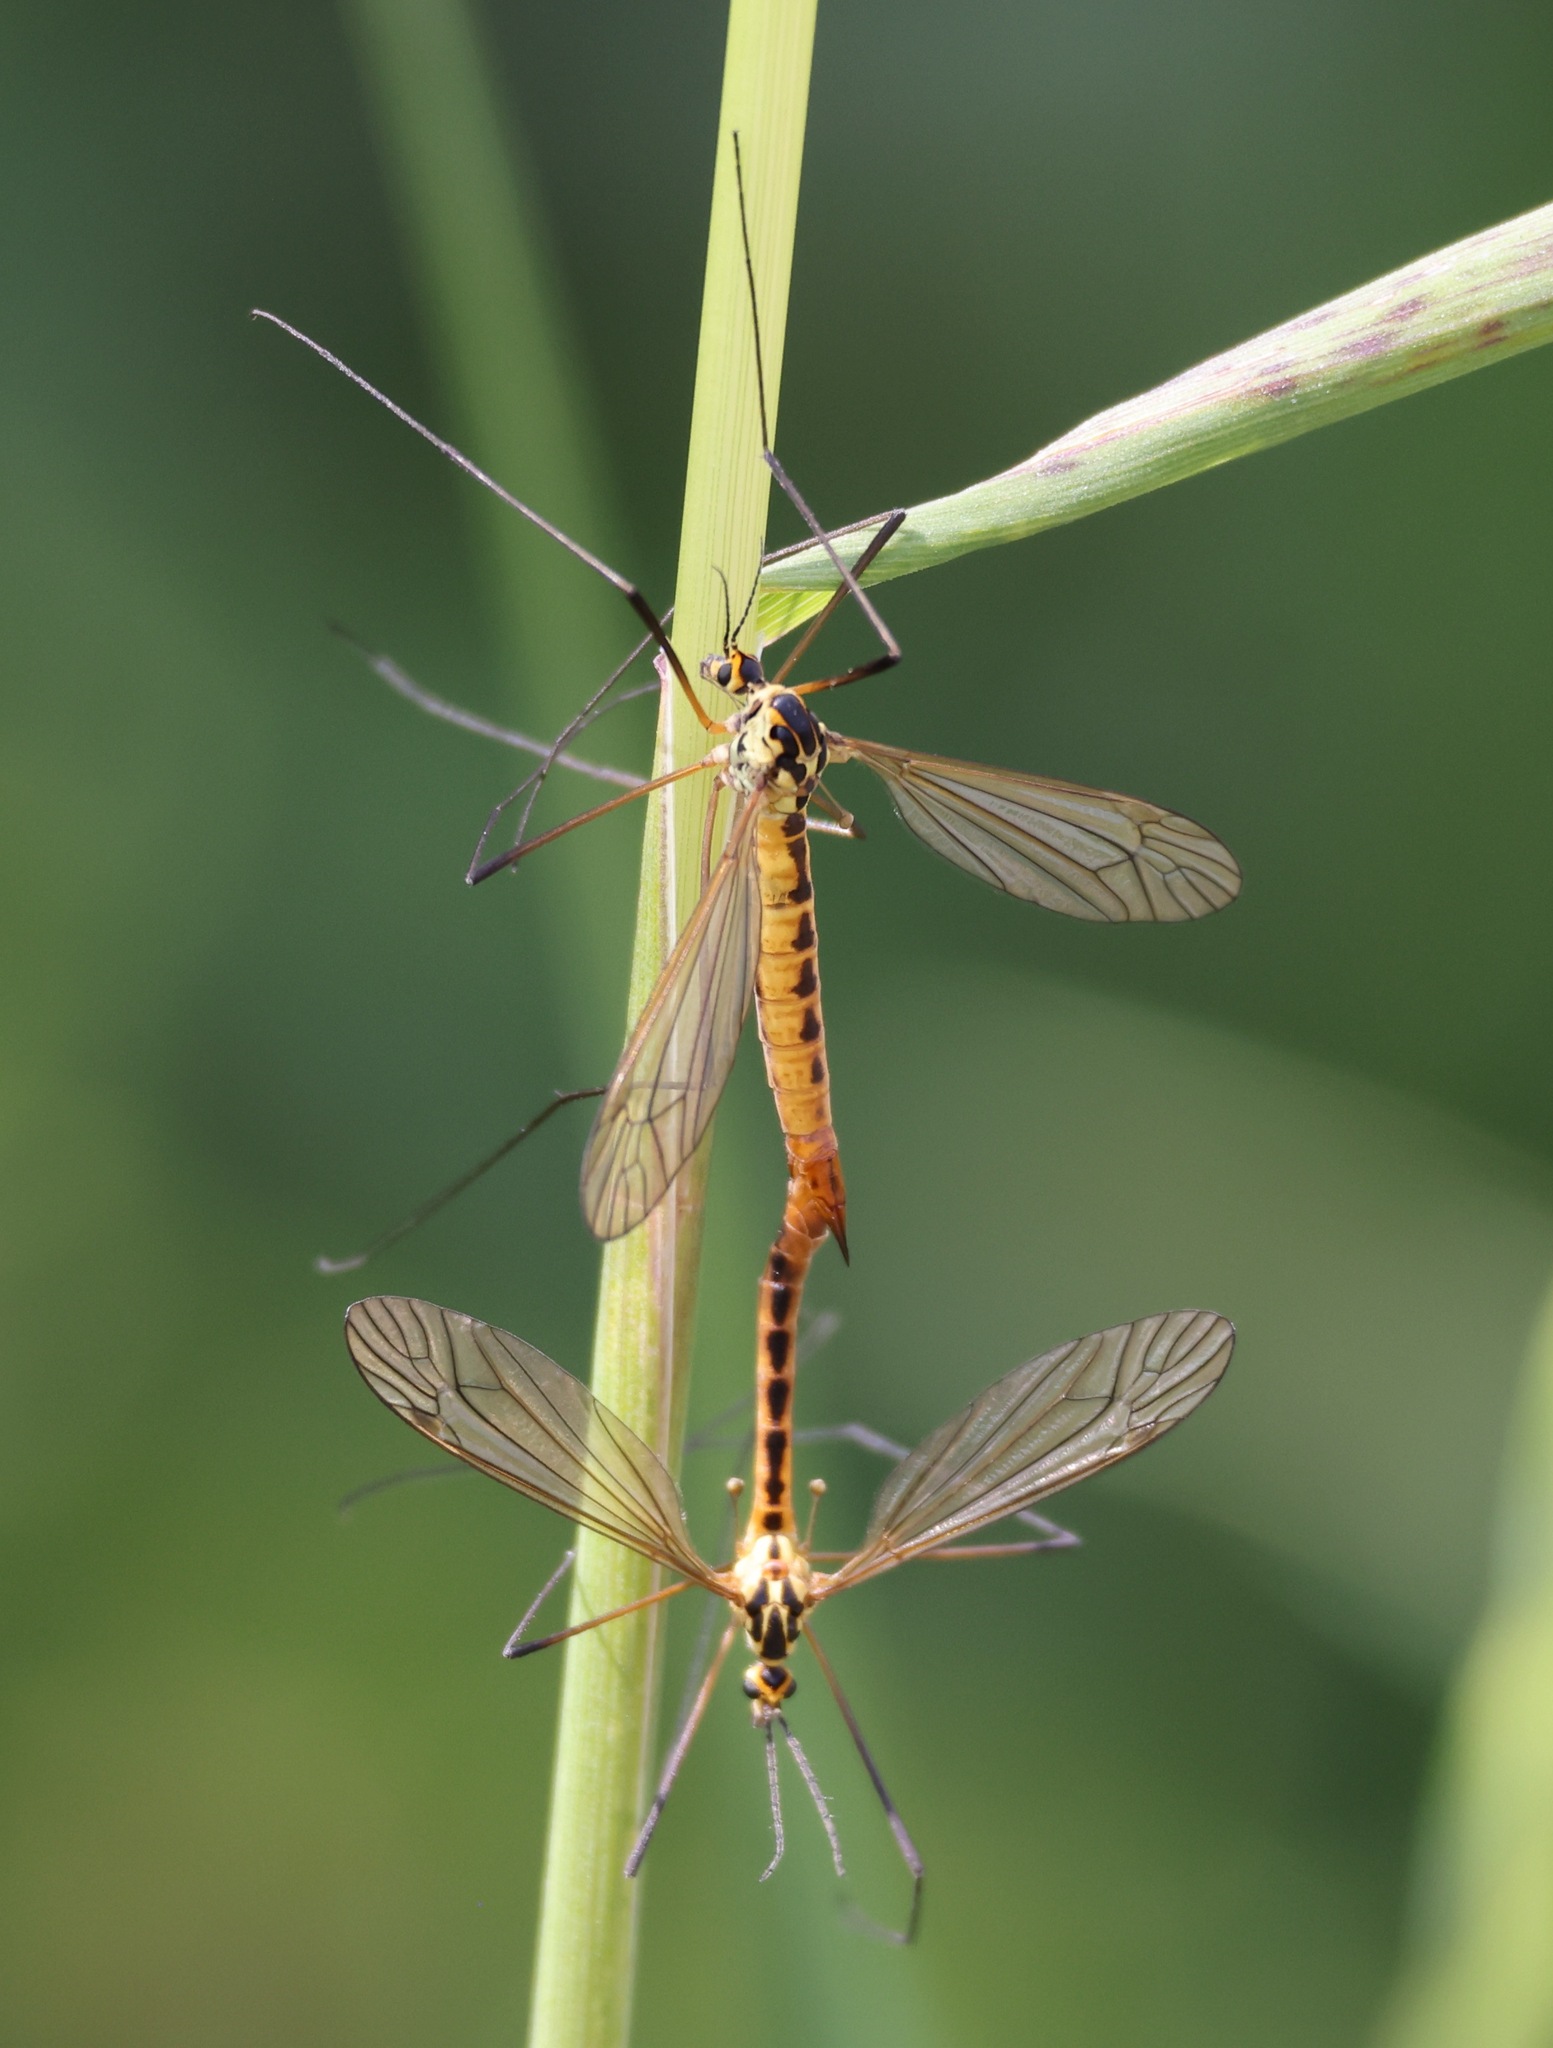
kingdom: Animalia
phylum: Arthropoda
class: Insecta
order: Diptera
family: Tipulidae
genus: Nephrotoma
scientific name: Nephrotoma flavescens
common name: Tiger cranefly
